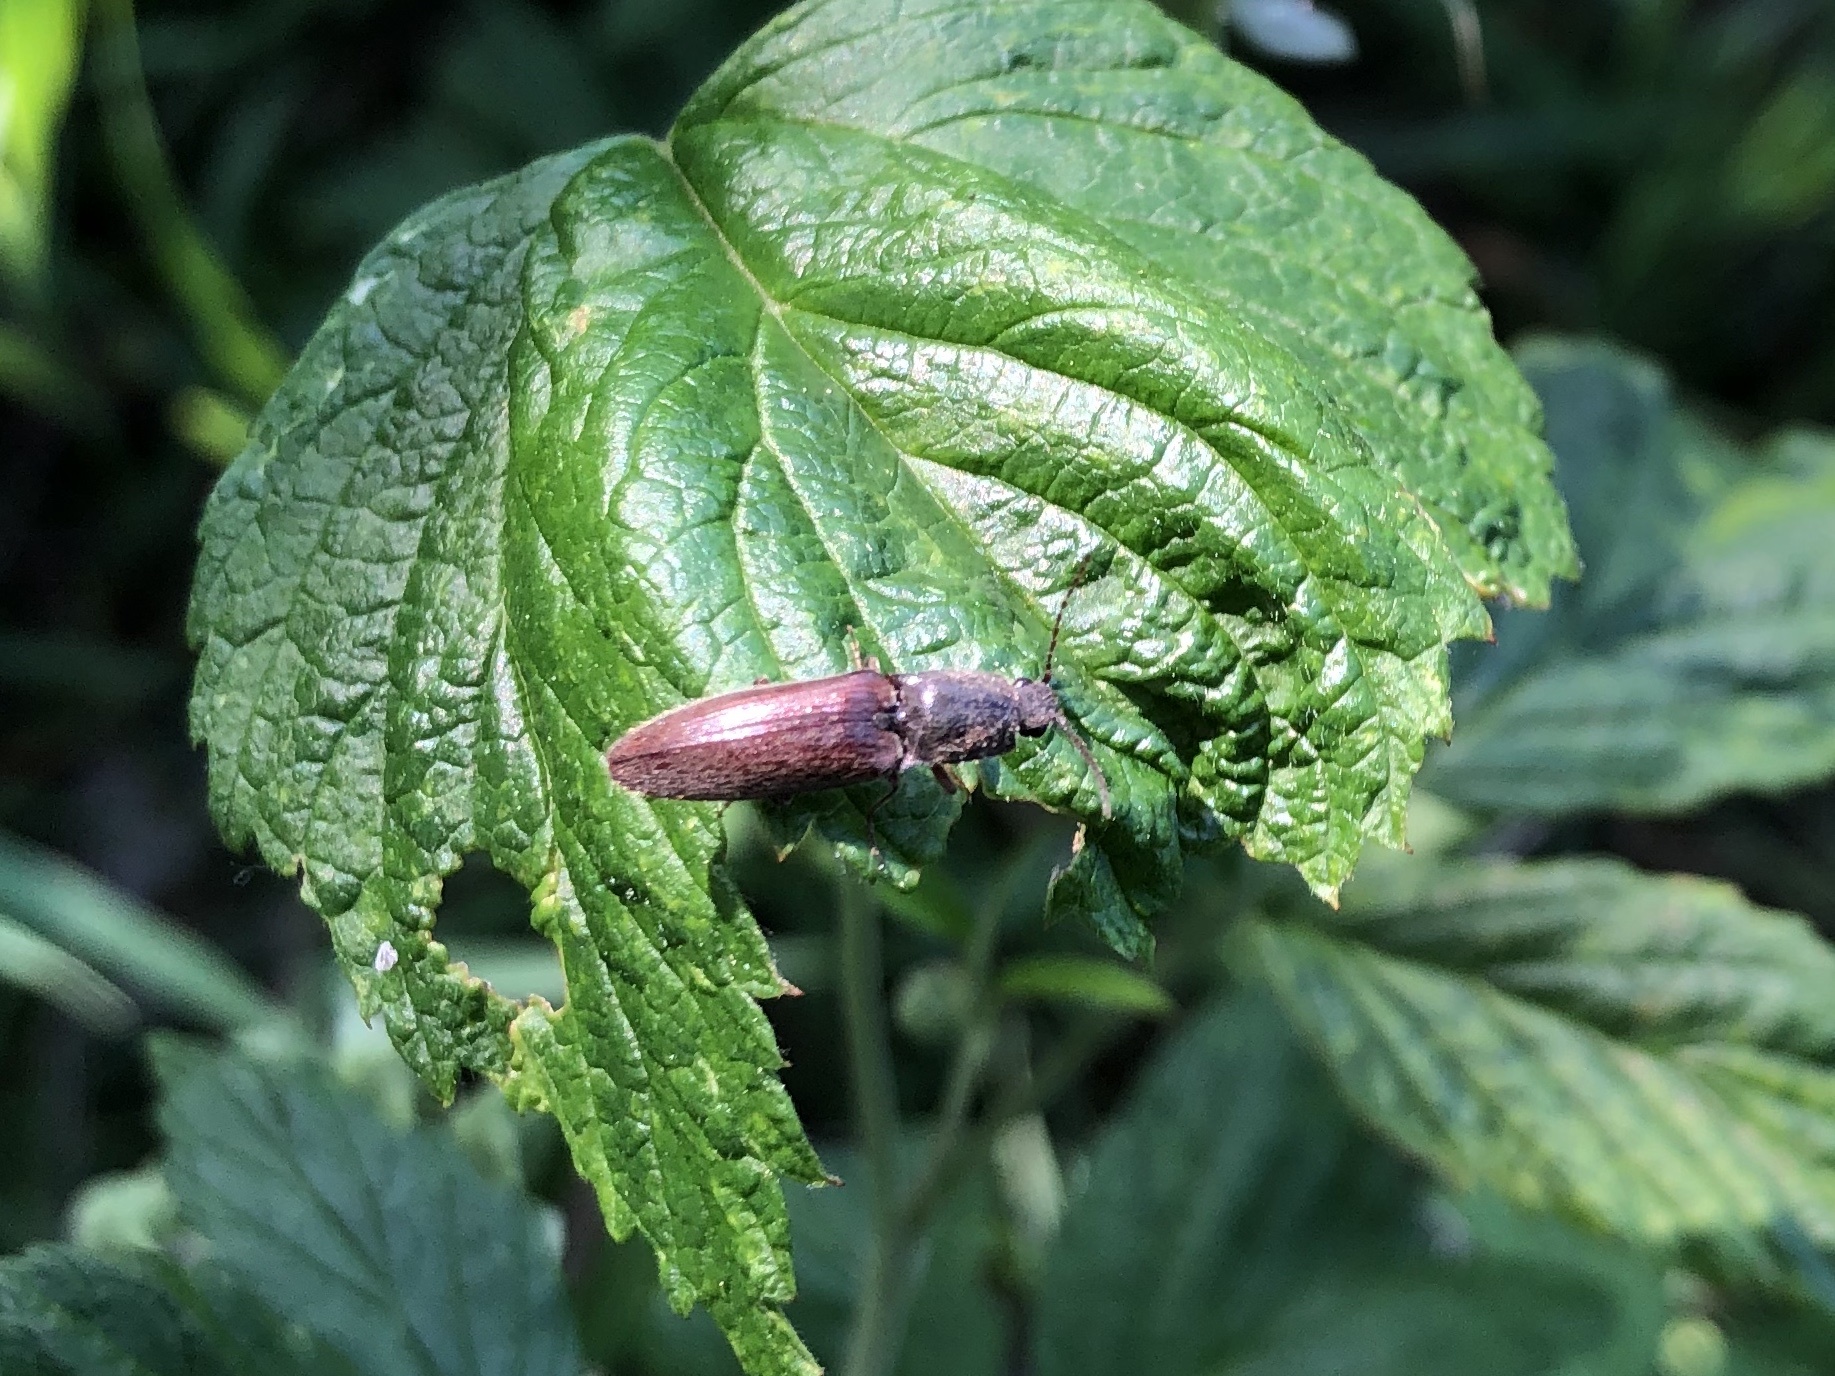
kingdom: Animalia
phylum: Arthropoda
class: Insecta
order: Coleoptera
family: Elateridae
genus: Athous
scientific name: Athous haemorrhoidalis
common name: Red-brown click beetle
